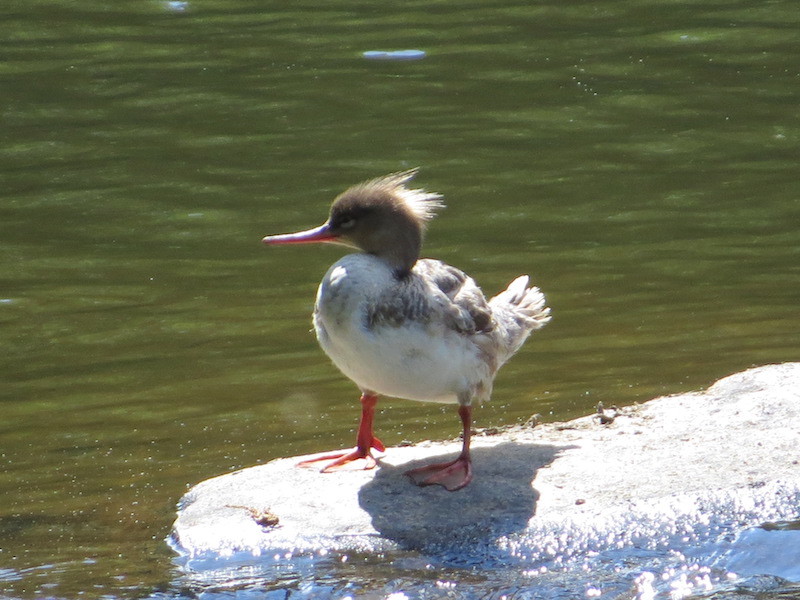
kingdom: Animalia
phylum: Chordata
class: Aves
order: Anseriformes
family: Anatidae
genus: Mergus
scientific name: Mergus merganser
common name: Common merganser
